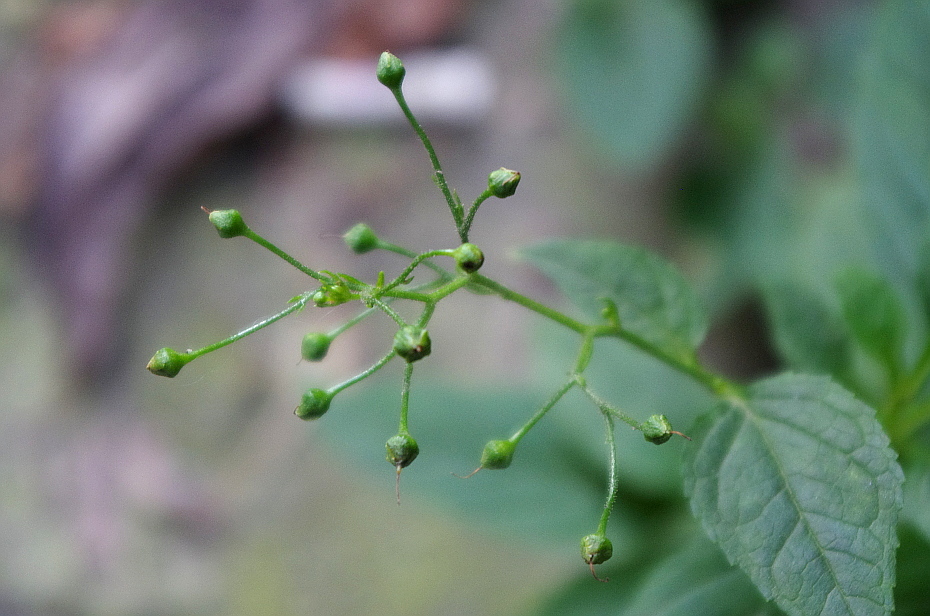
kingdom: Plantae
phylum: Tracheophyta
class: Magnoliopsida
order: Lamiales
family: Scrophulariaceae
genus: Scrophularia
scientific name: Scrophularia nodosa
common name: Common figwort
